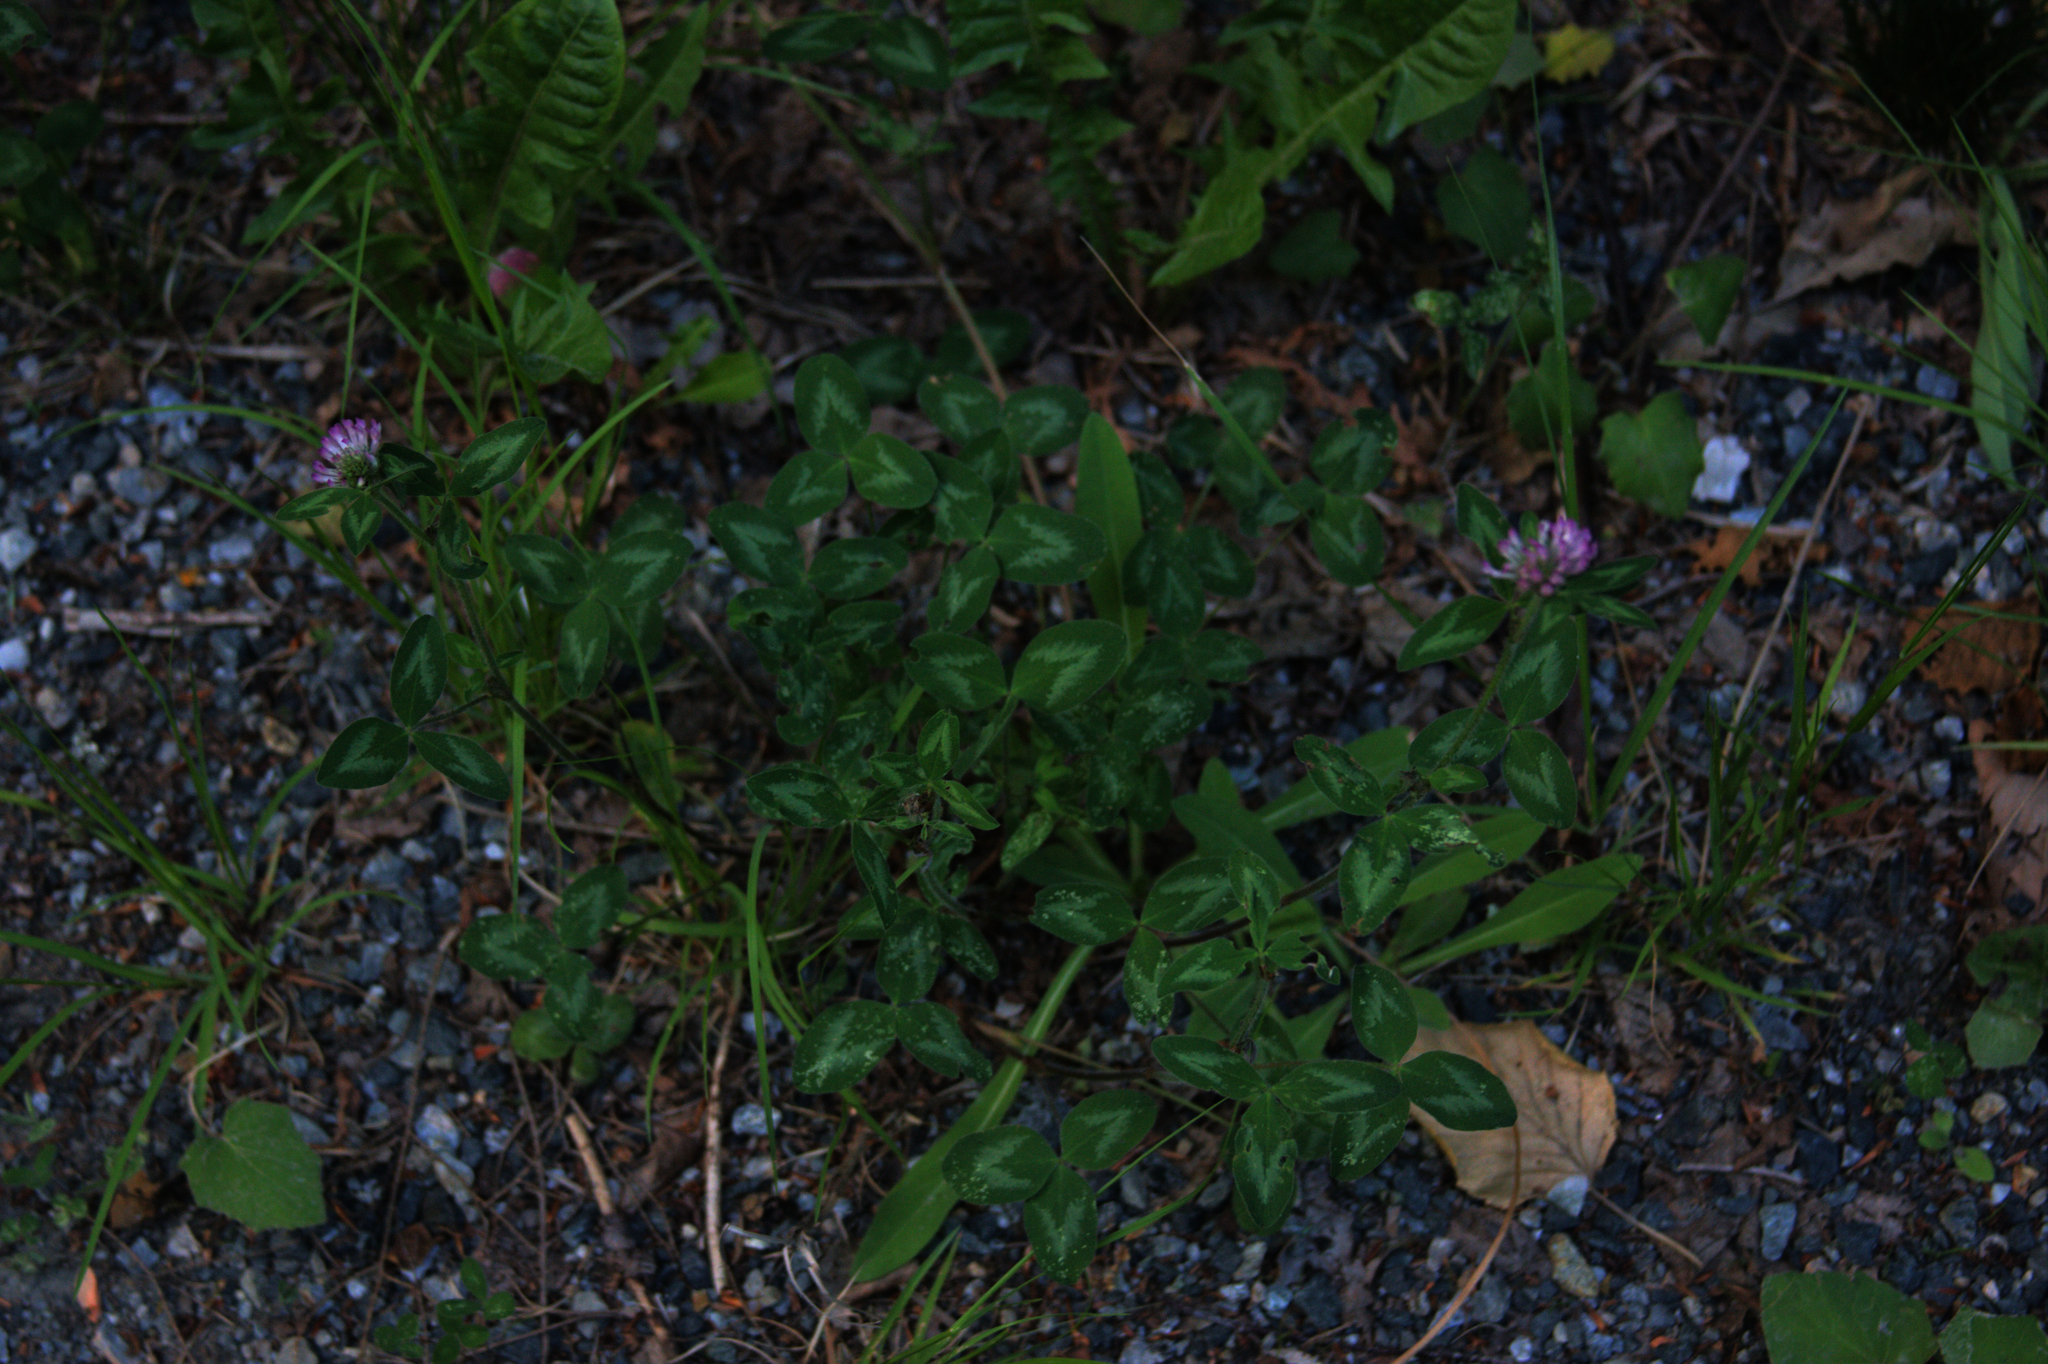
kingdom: Plantae
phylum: Tracheophyta
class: Magnoliopsida
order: Fabales
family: Fabaceae
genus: Trifolium
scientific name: Trifolium pratense
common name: Red clover
